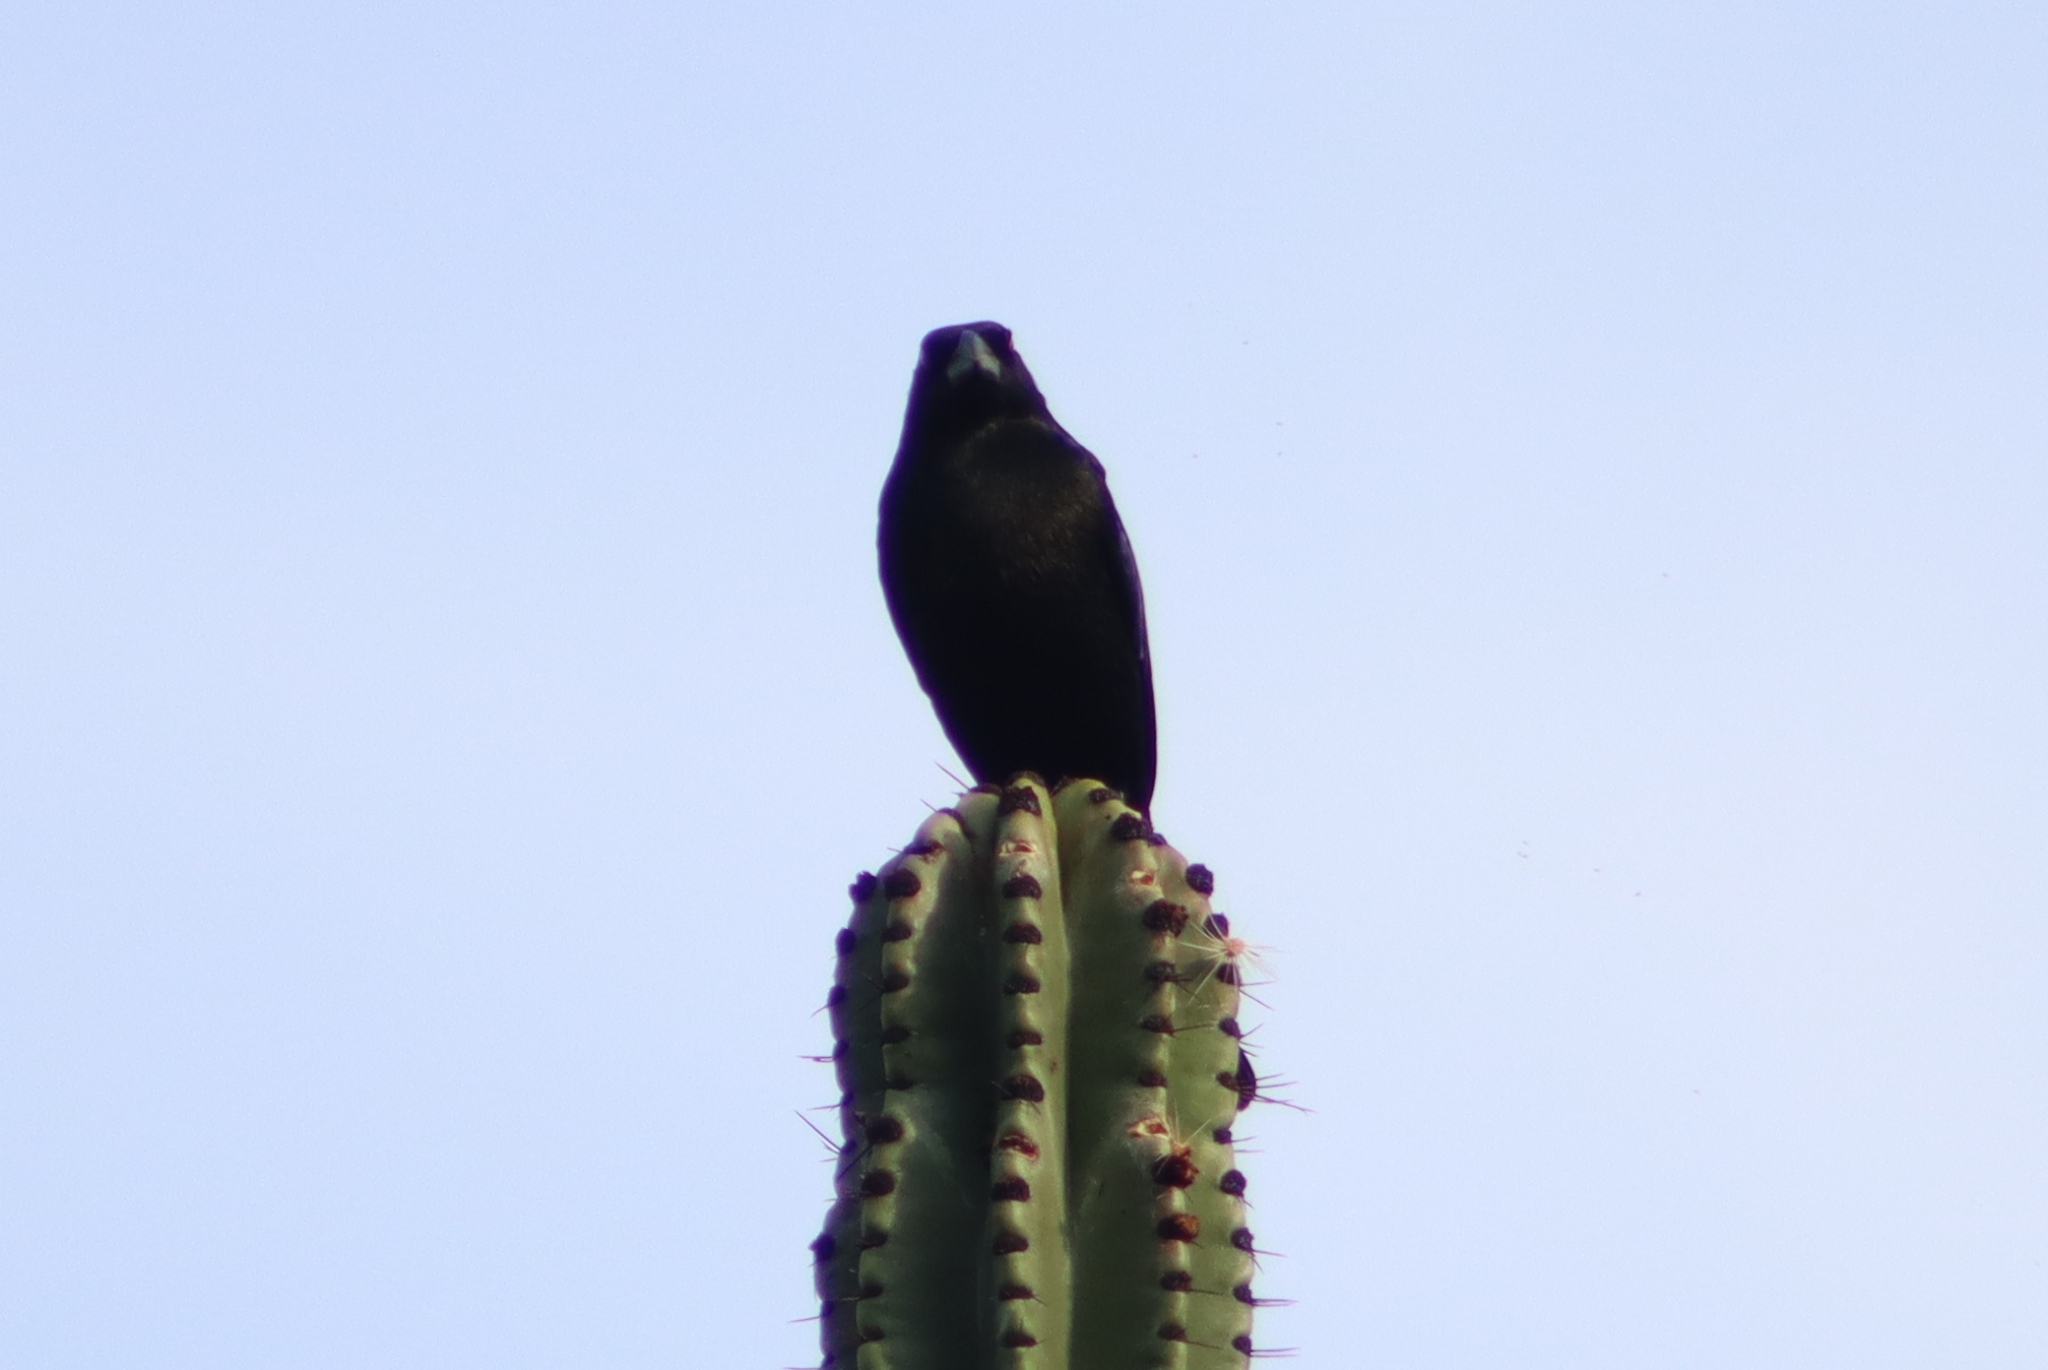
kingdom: Animalia
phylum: Chordata
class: Aves
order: Passeriformes
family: Icteridae
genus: Molothrus
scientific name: Molothrus aeneus
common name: Bronzed cowbird
